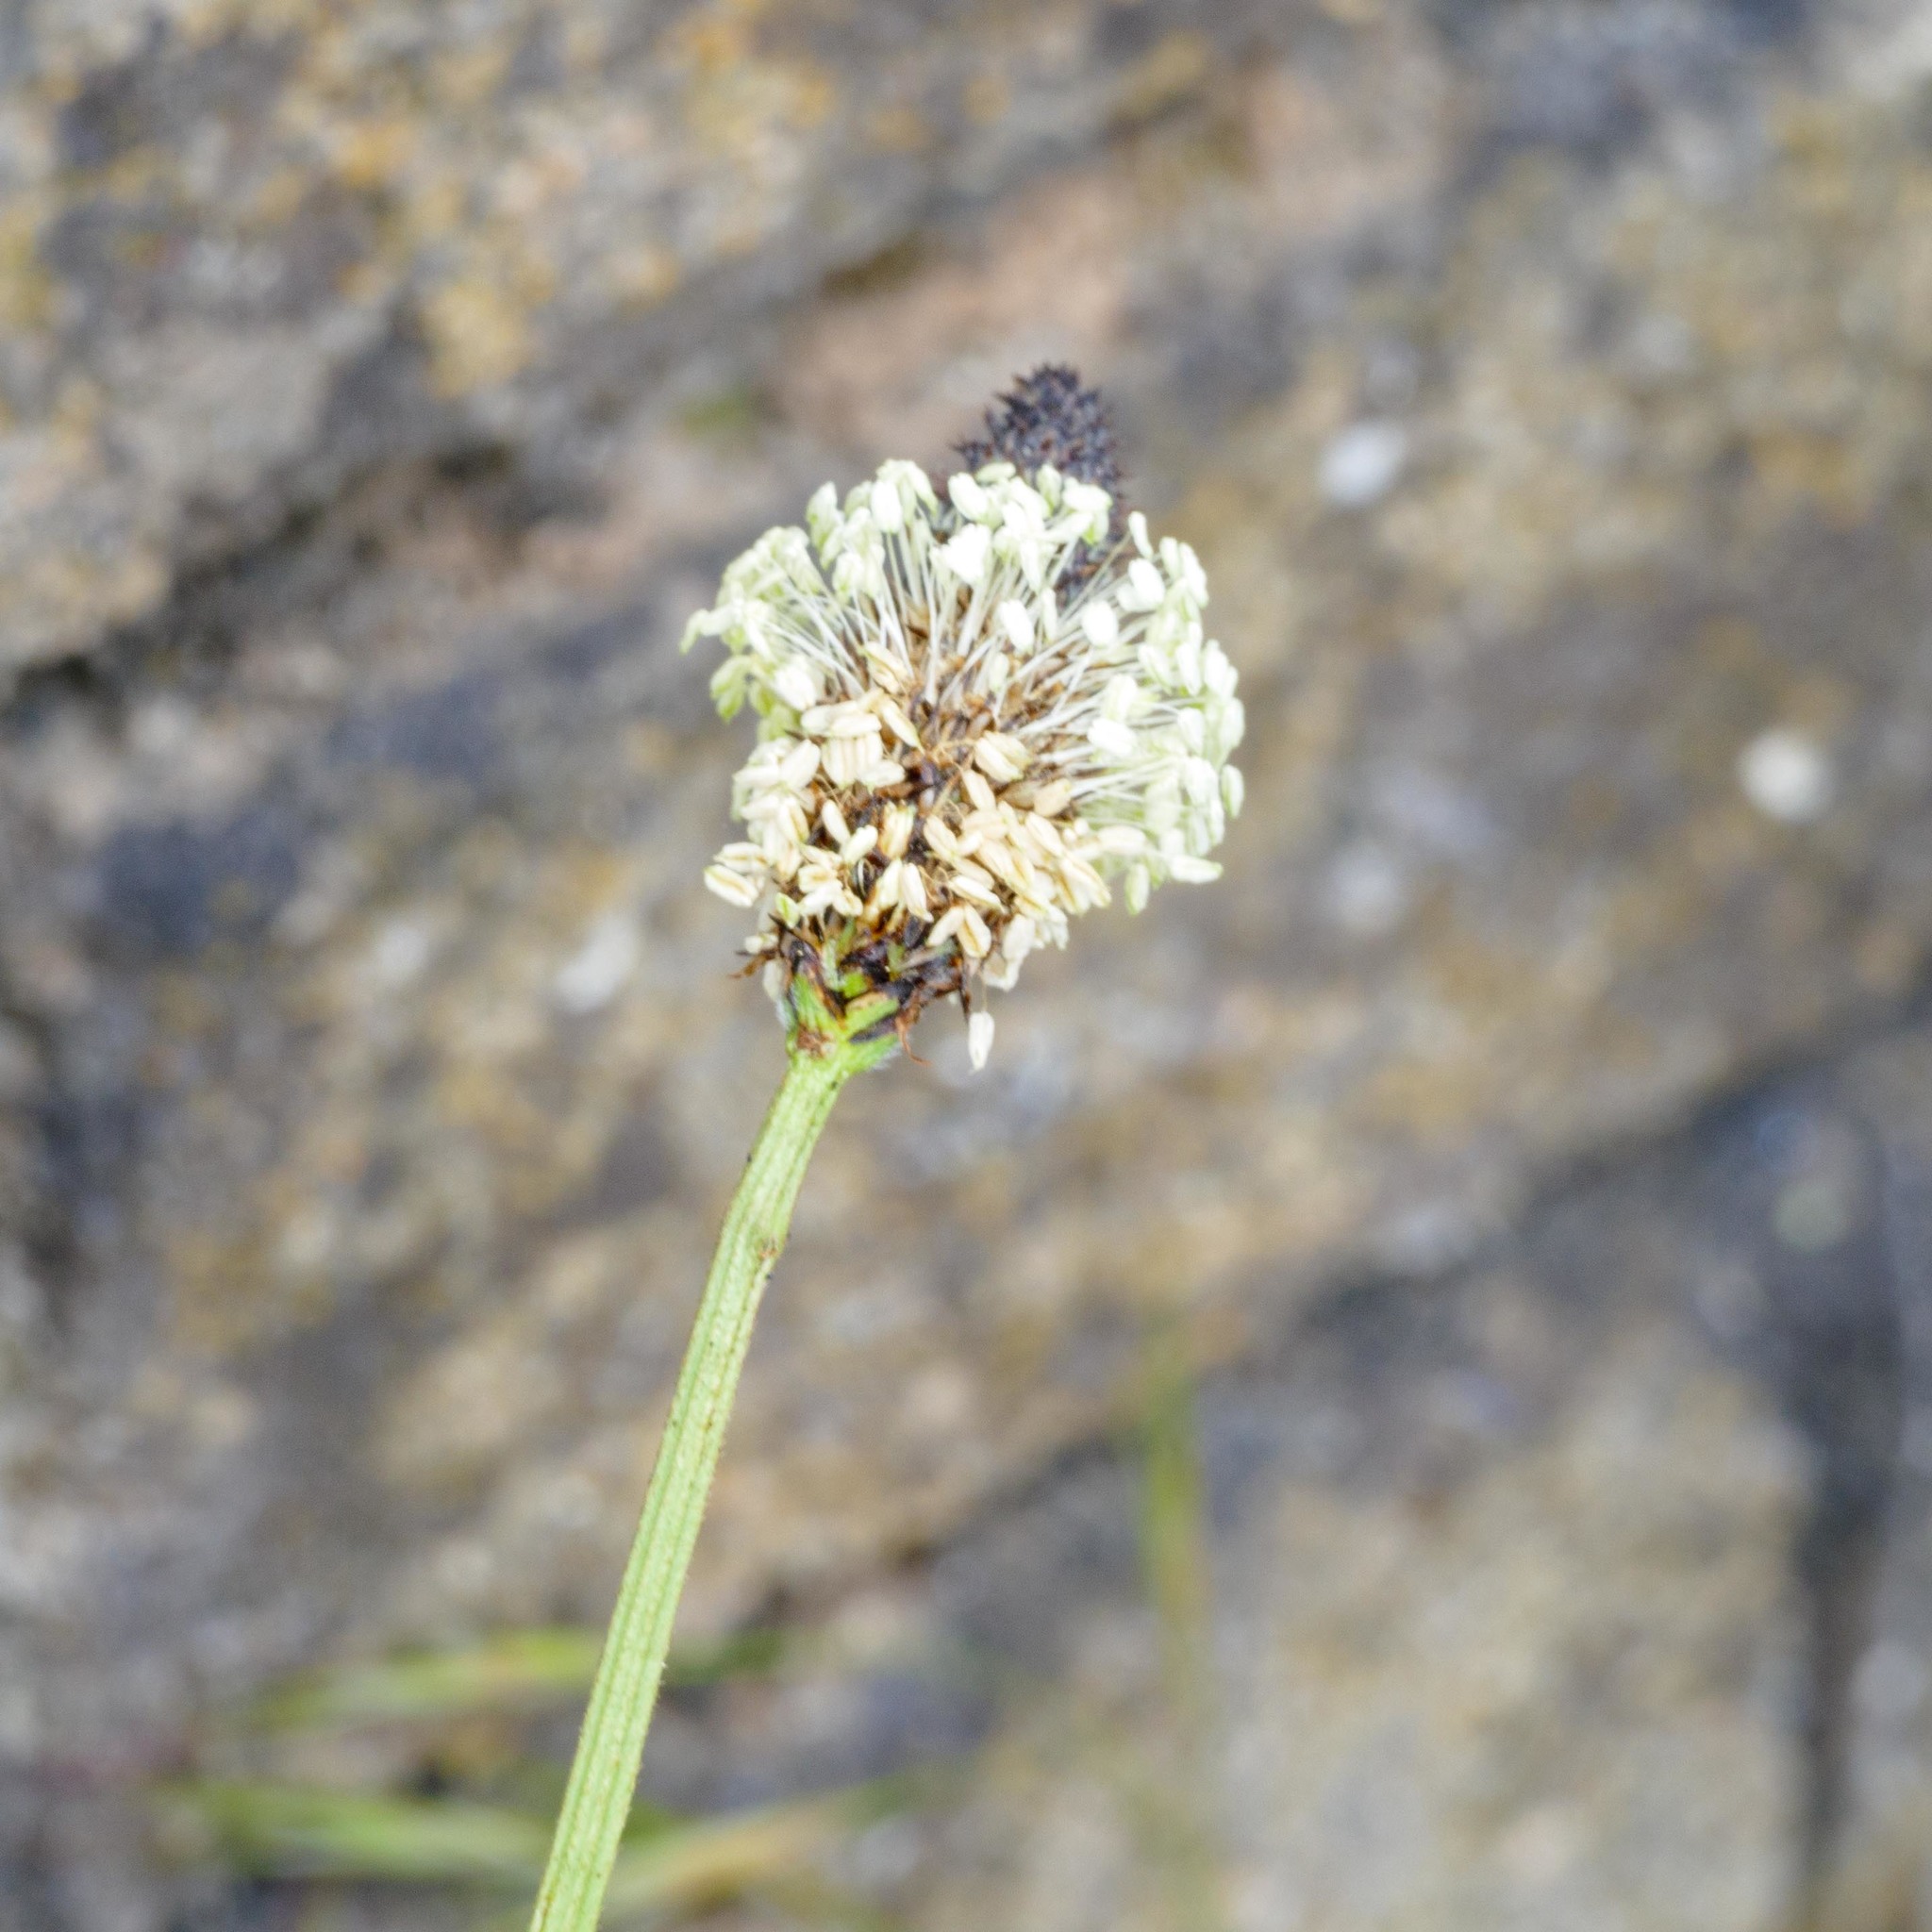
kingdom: Plantae
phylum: Tracheophyta
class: Magnoliopsida
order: Lamiales
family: Plantaginaceae
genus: Plantago
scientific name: Plantago lanceolata
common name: Ribwort plantain
